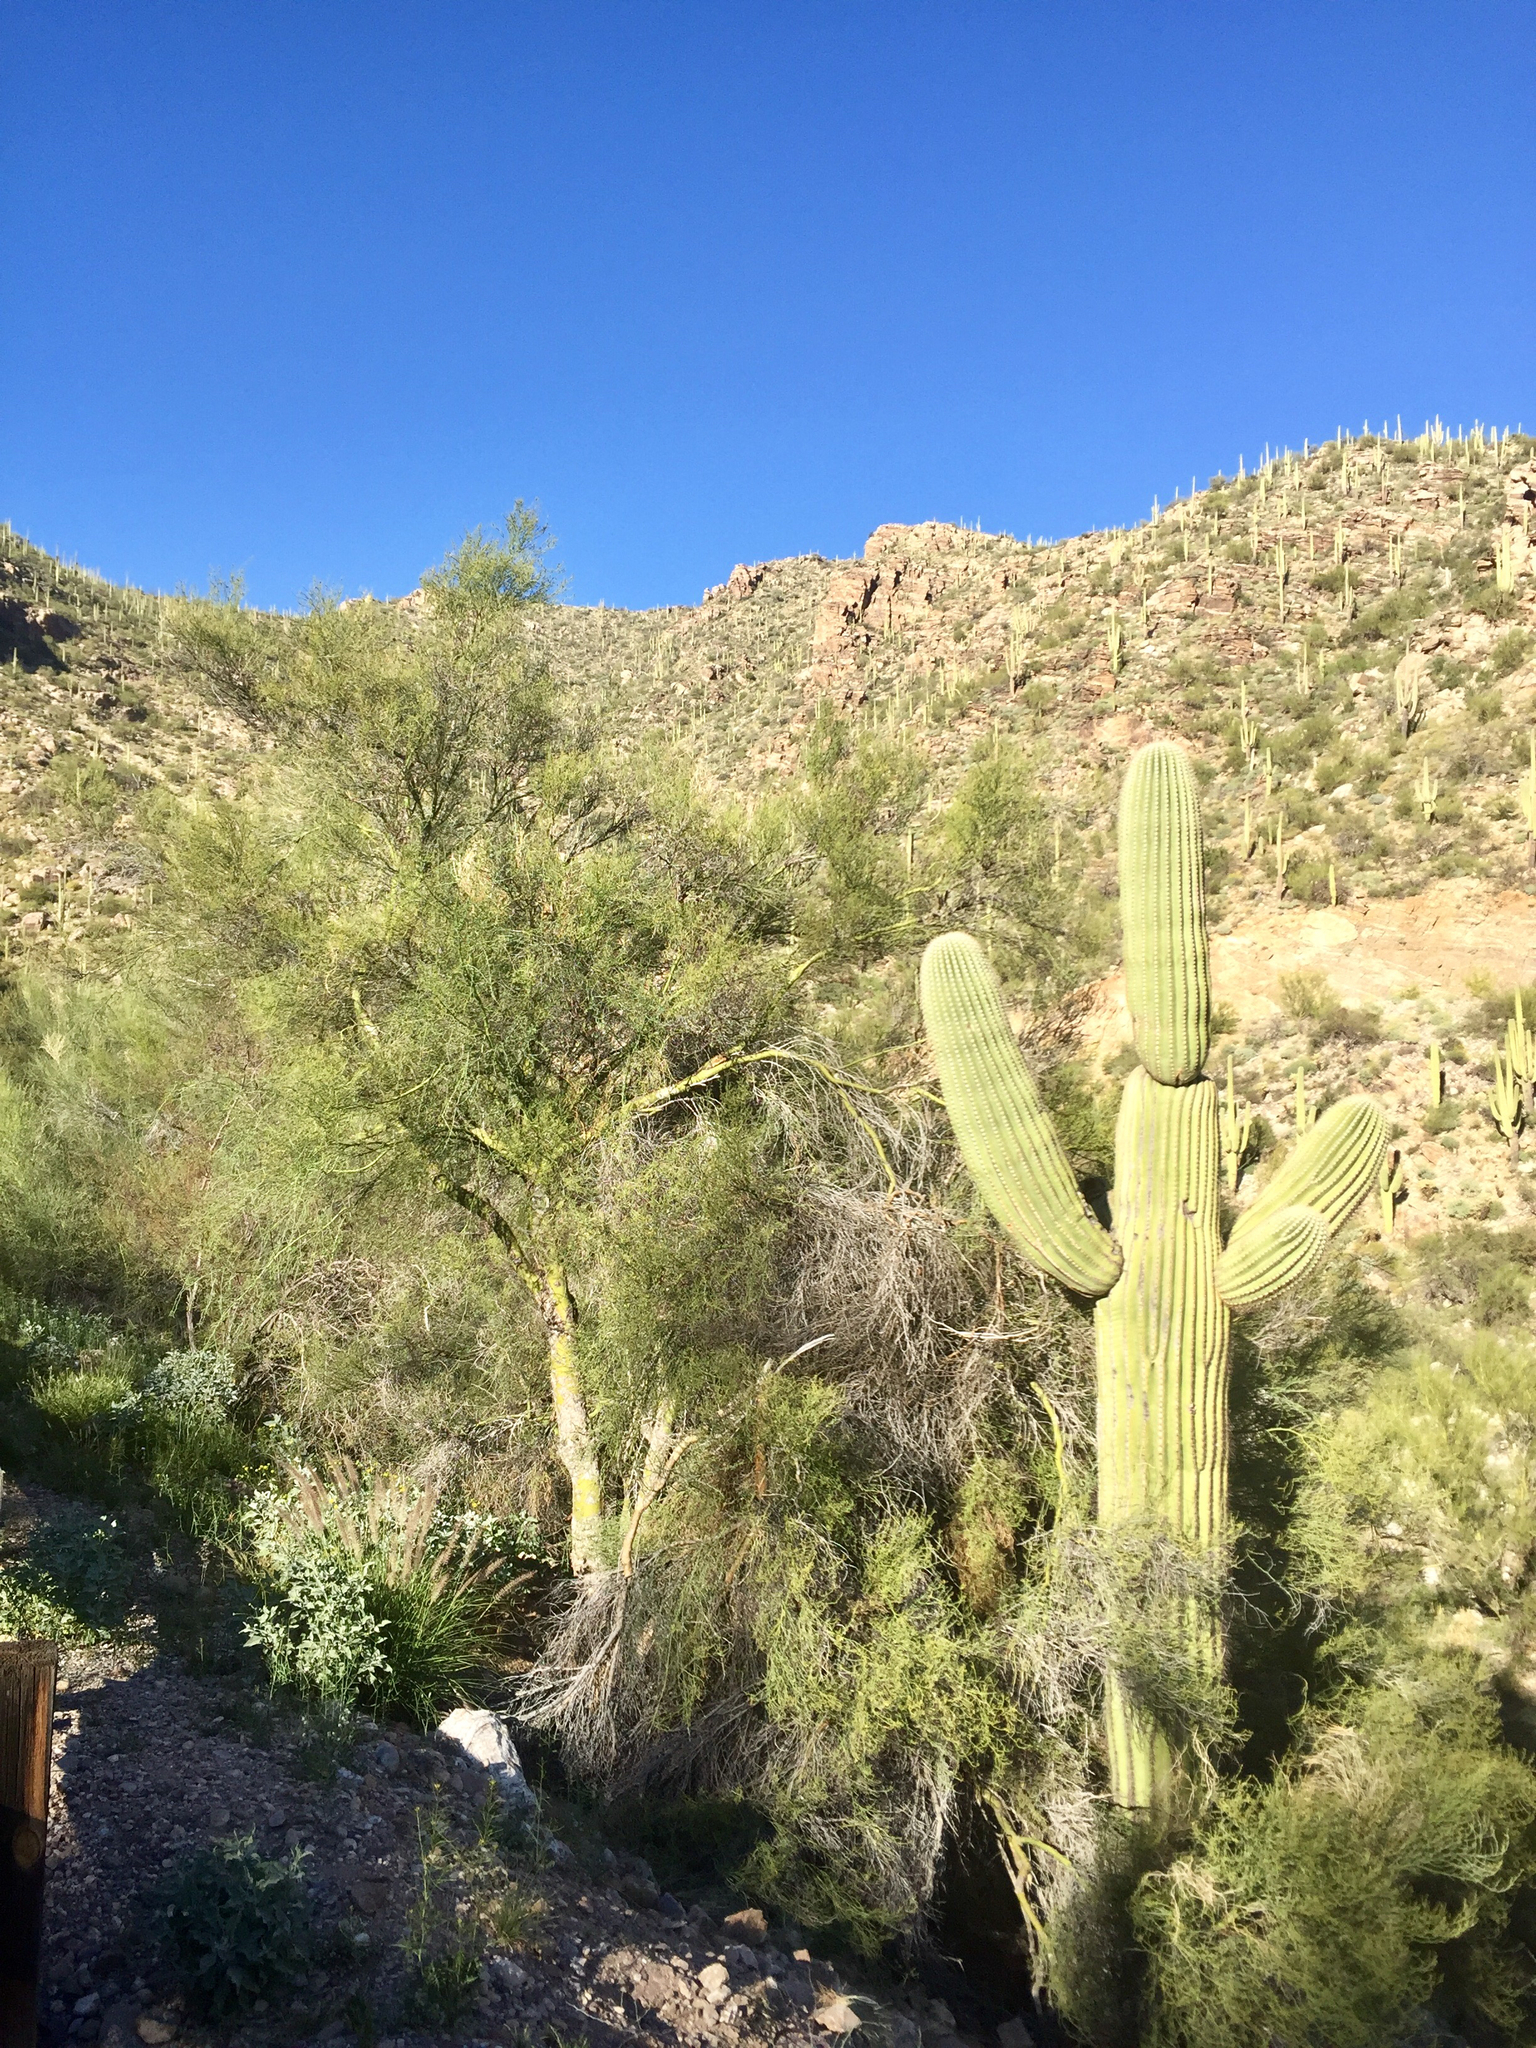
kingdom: Plantae
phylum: Tracheophyta
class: Magnoliopsida
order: Caryophyllales
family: Cactaceae
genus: Carnegiea
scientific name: Carnegiea gigantea
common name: Saguaro
